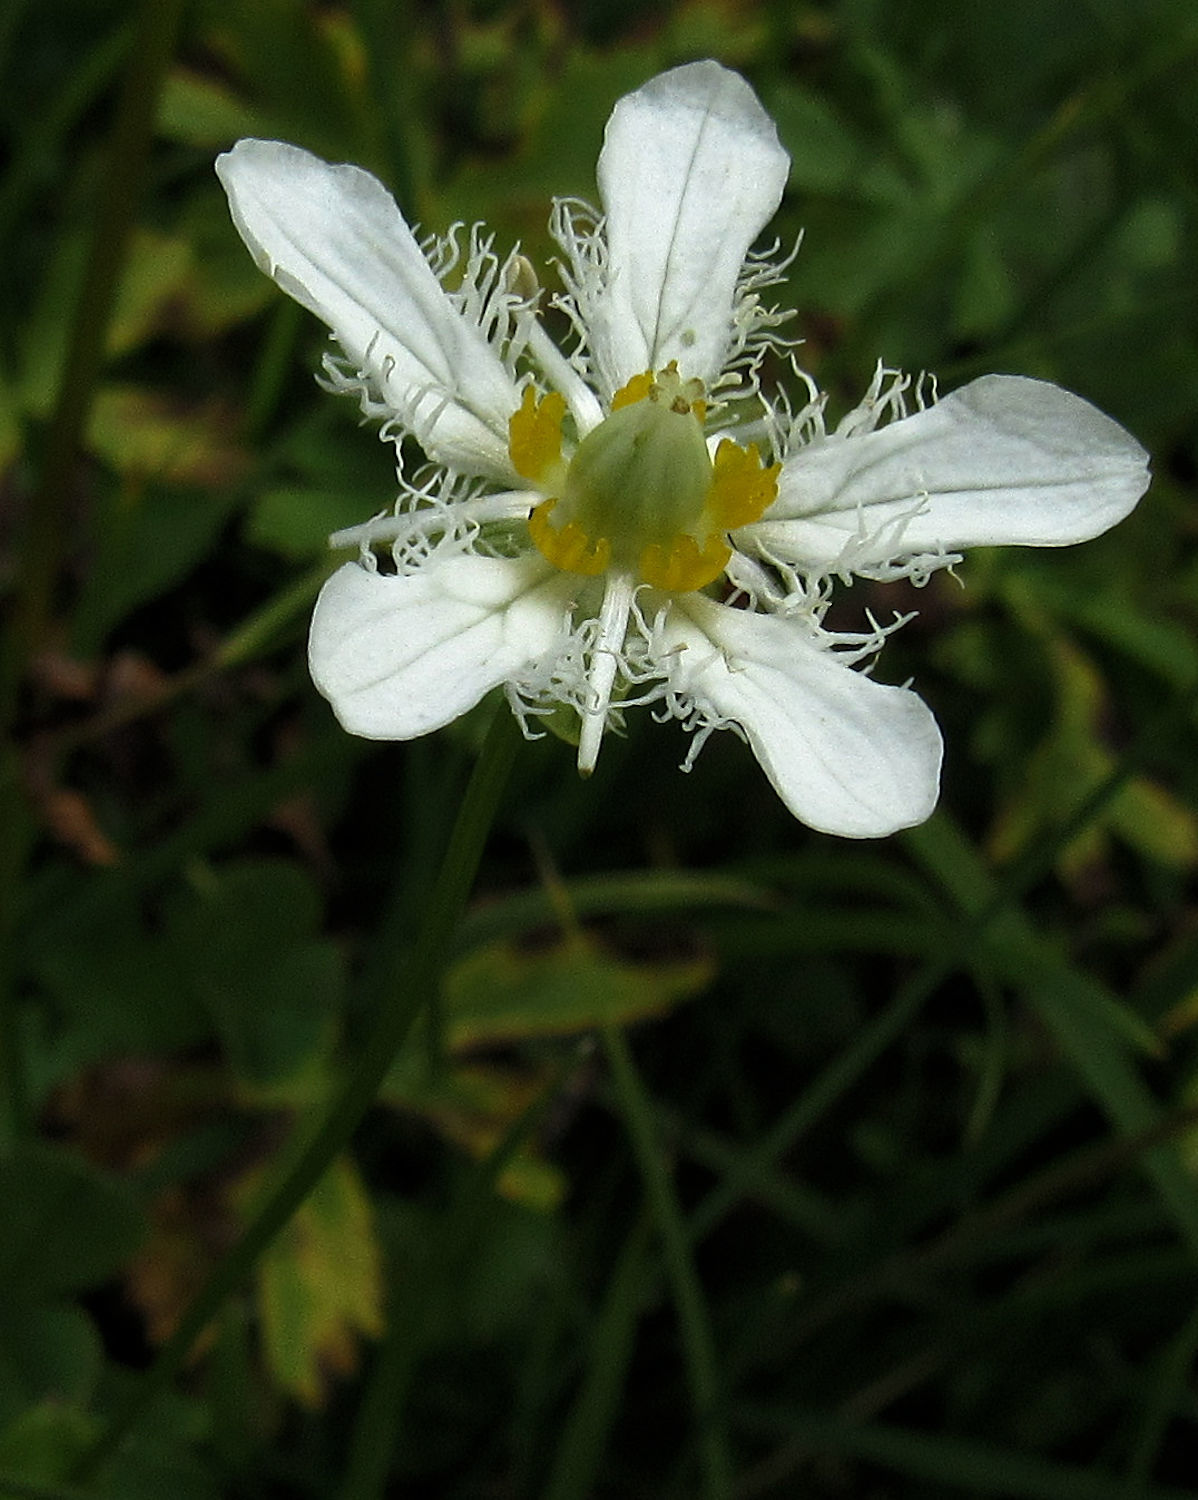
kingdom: Plantae
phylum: Tracheophyta
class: Magnoliopsida
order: Celastrales
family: Parnassiaceae
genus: Parnassia
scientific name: Parnassia fimbriata
